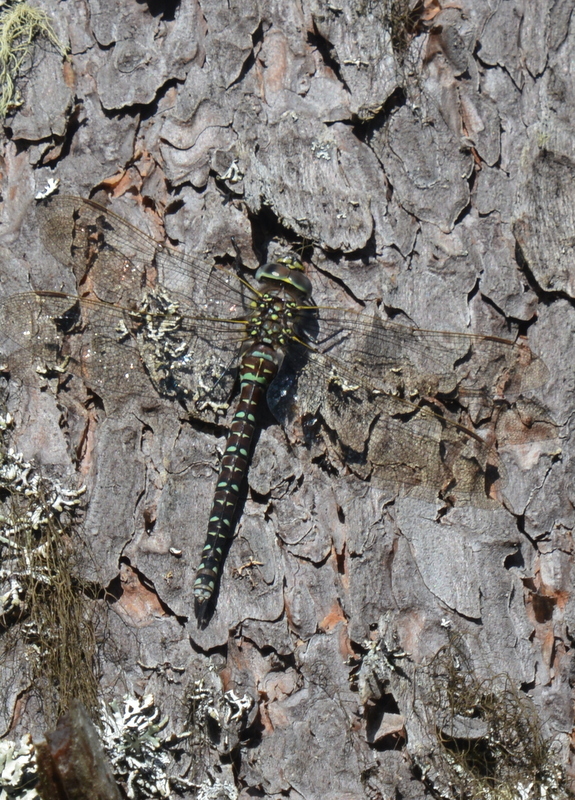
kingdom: Animalia
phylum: Arthropoda
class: Insecta
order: Odonata
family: Aeshnidae
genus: Aeshna
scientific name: Aeshna juncea
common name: Moorland hawker
